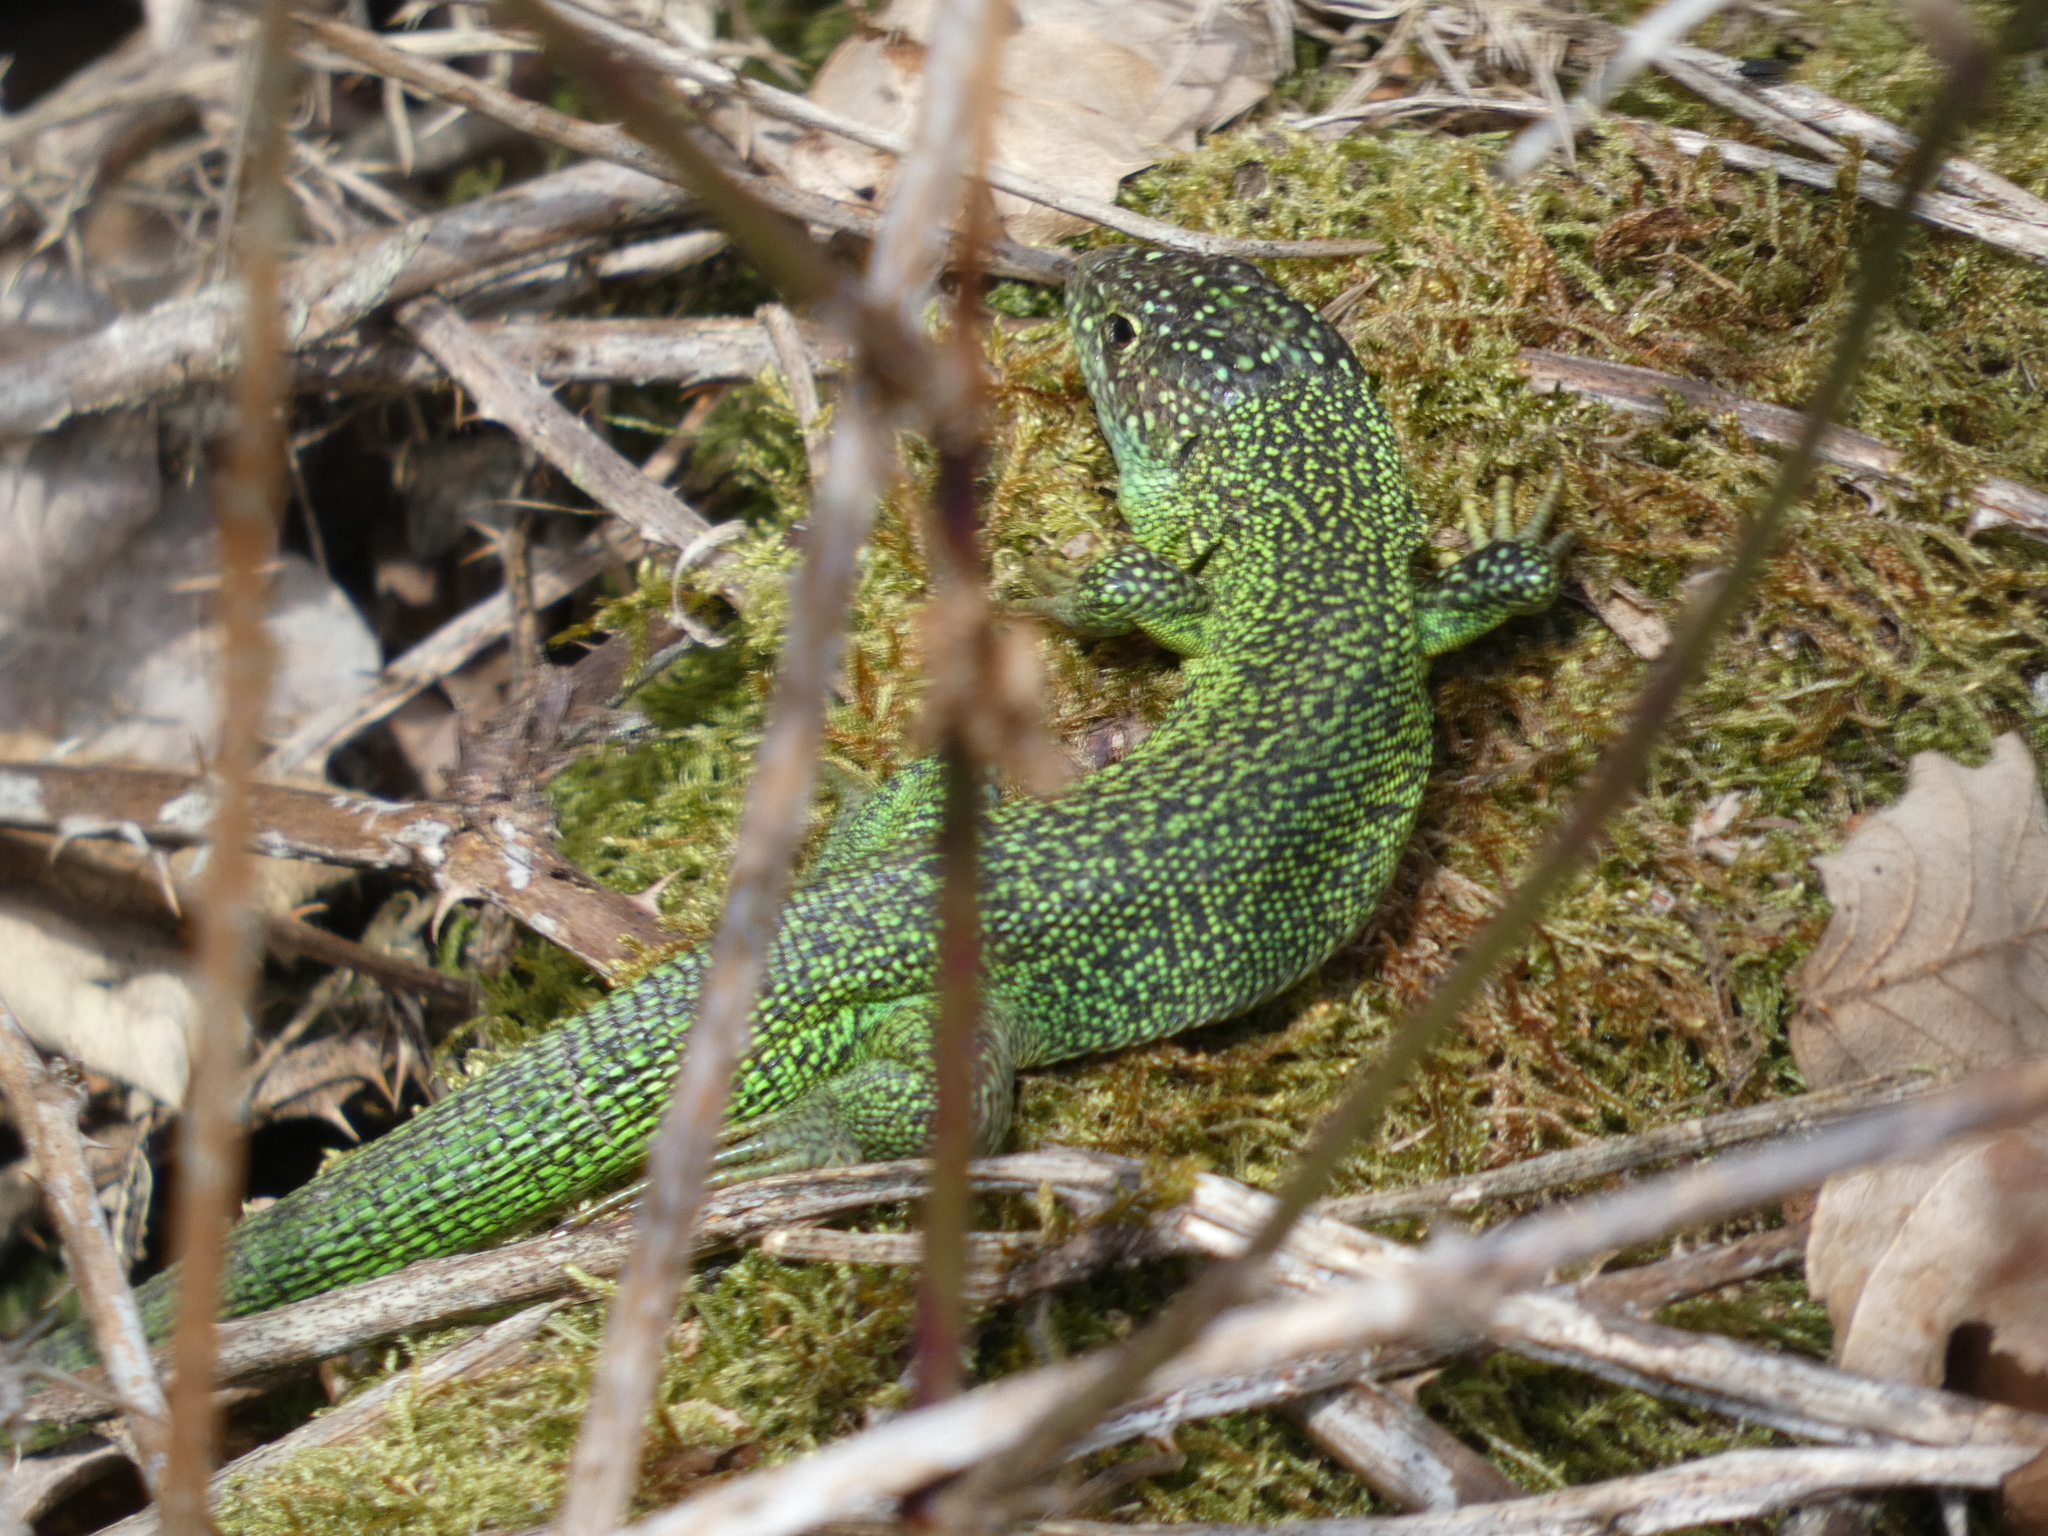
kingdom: Animalia
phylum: Chordata
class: Squamata
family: Lacertidae
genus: Lacerta
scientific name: Lacerta bilineata
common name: Western green lizard
